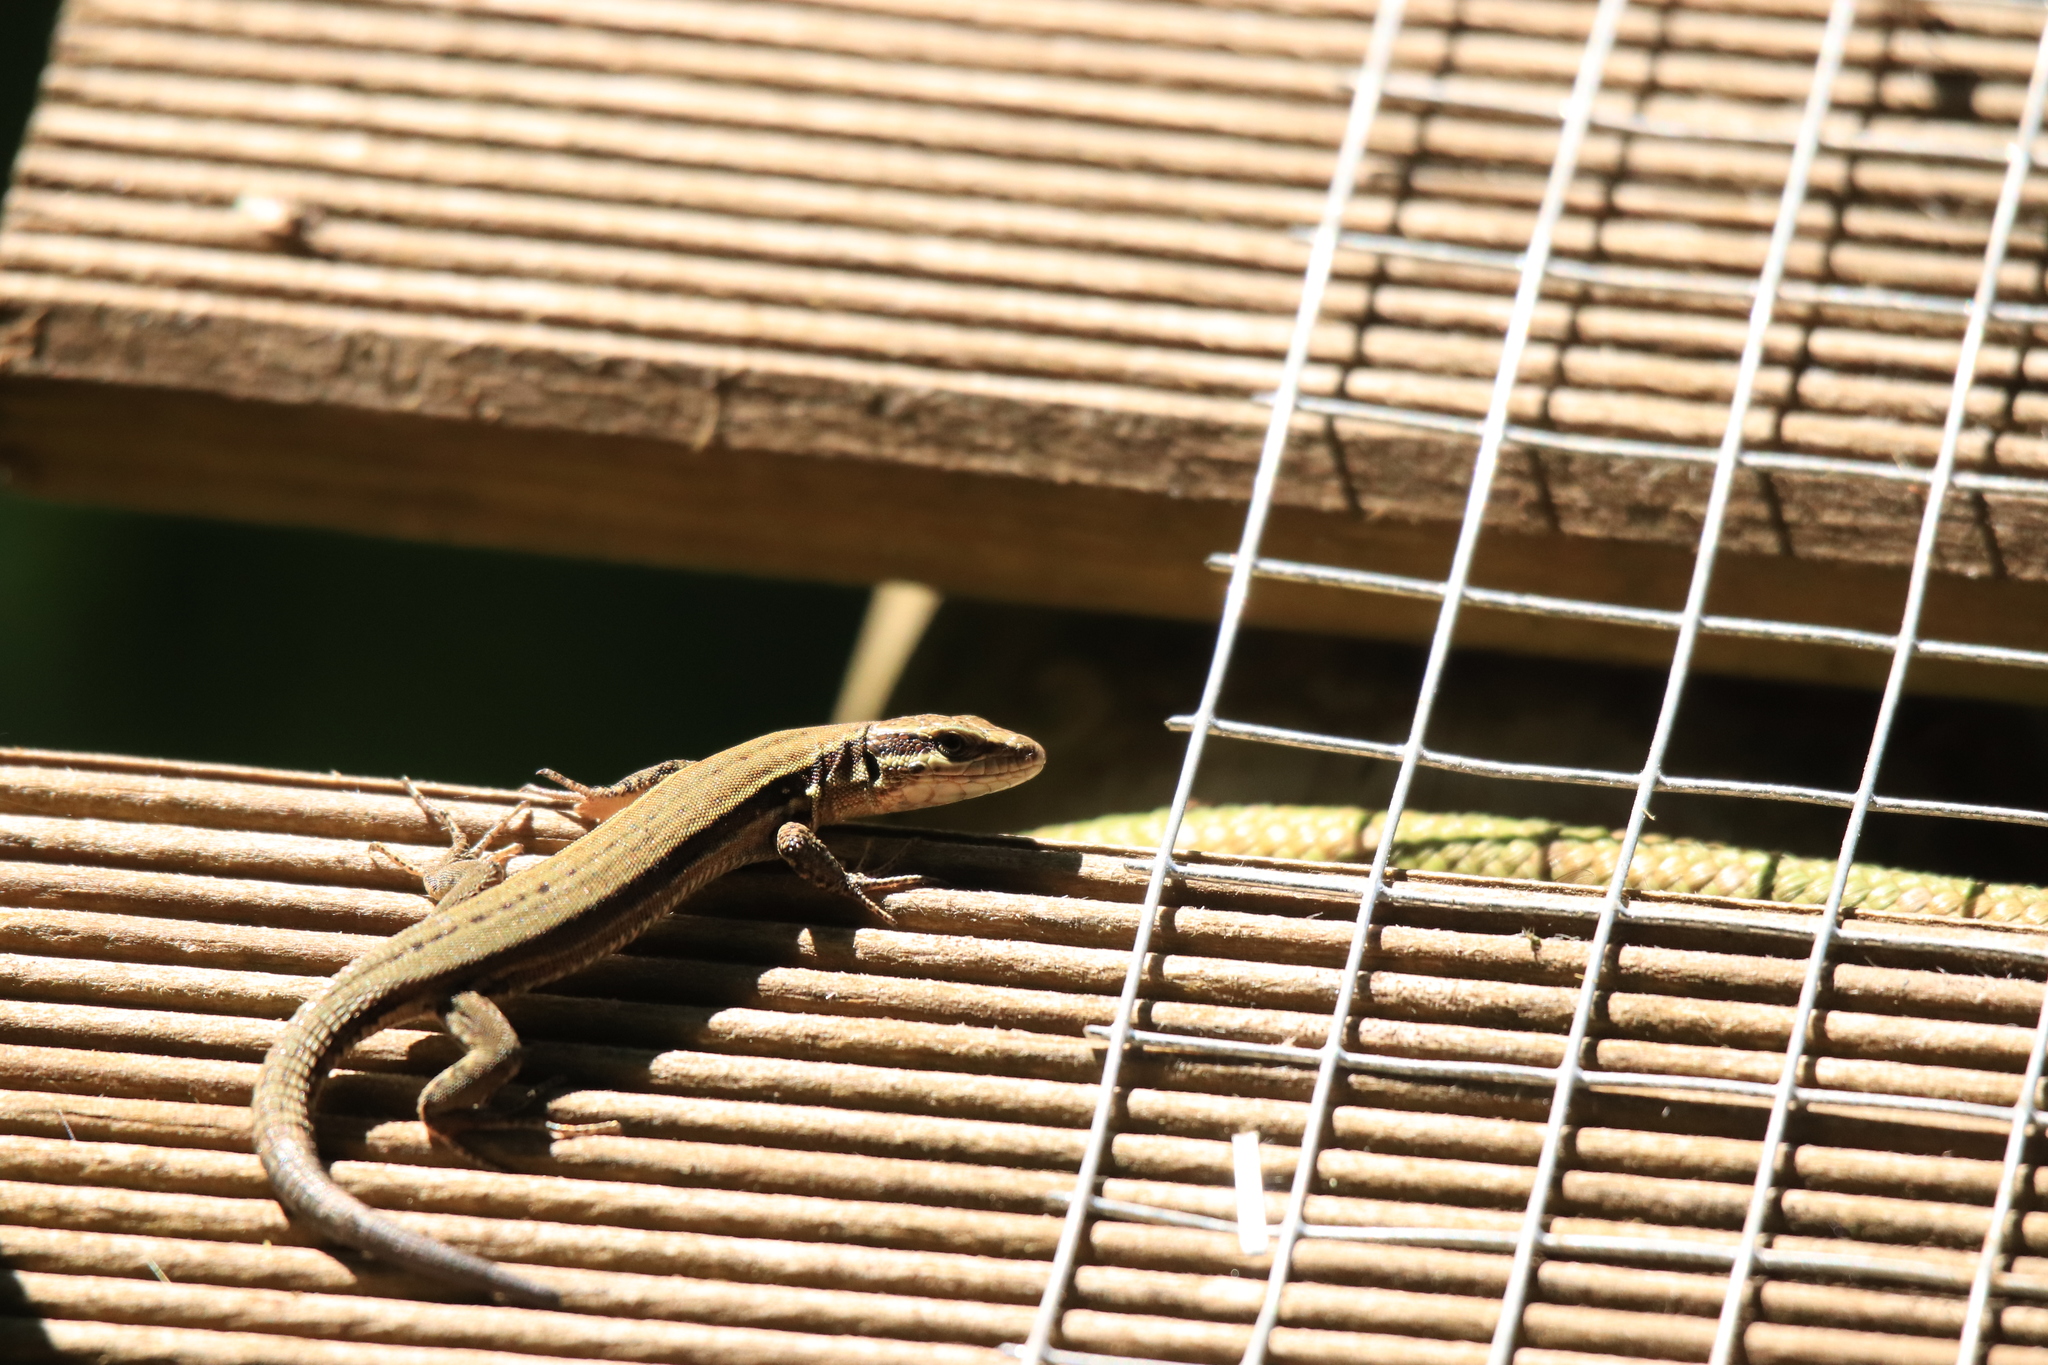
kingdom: Animalia
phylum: Chordata
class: Squamata
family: Lacertidae
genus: Podarcis
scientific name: Podarcis muralis
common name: Common wall lizard
